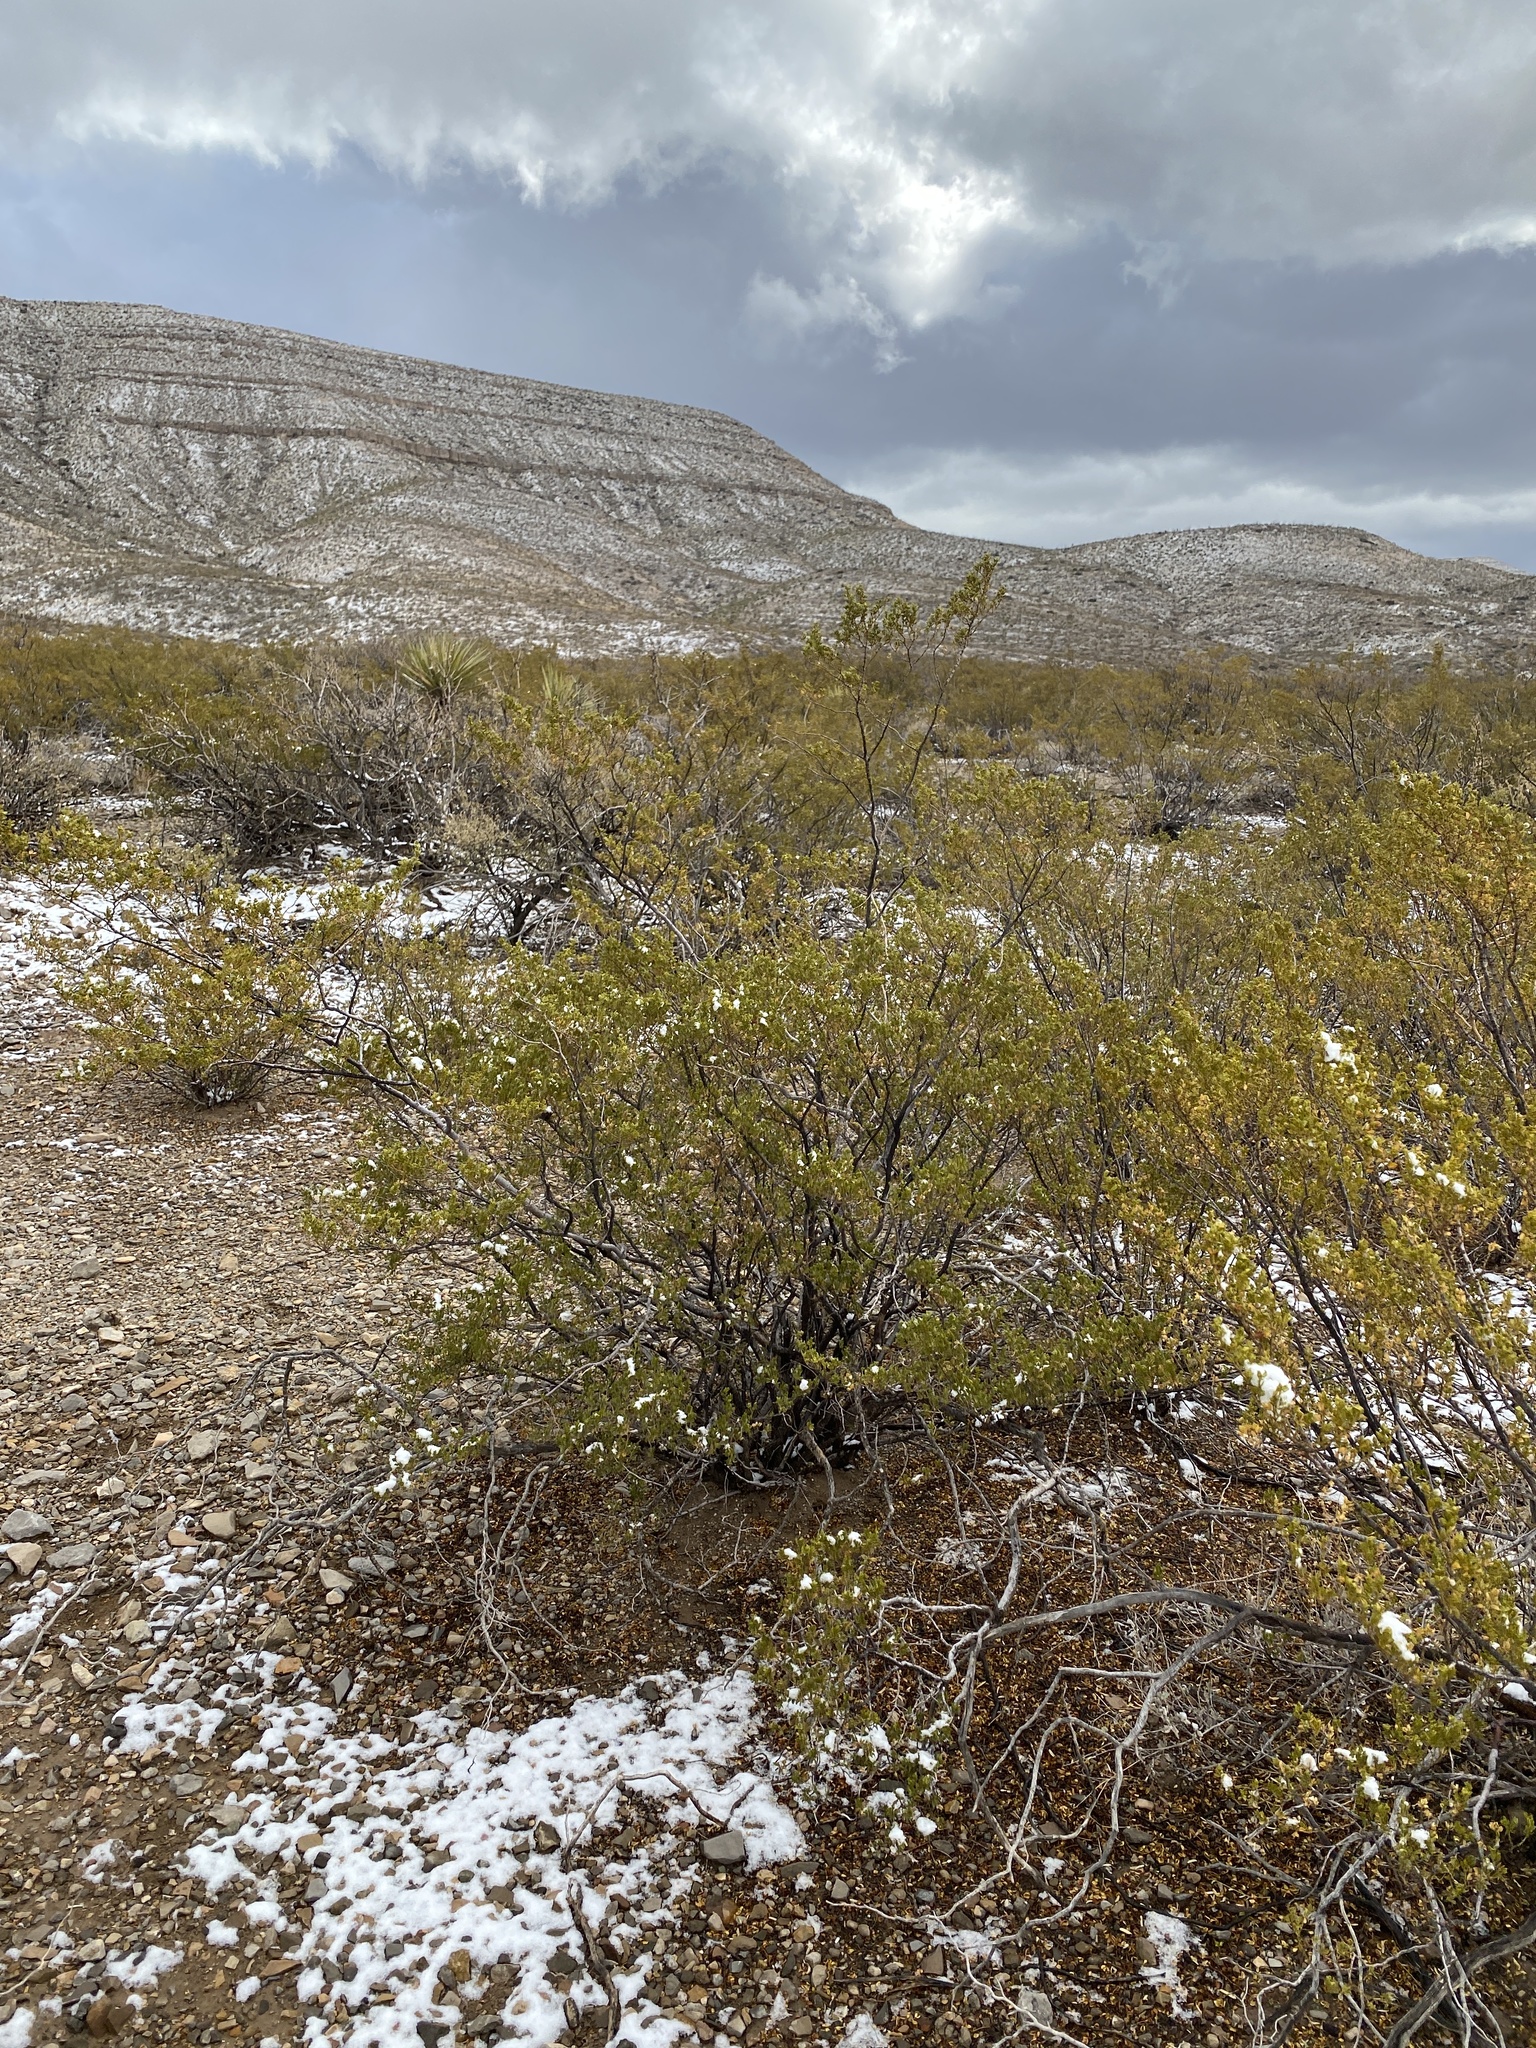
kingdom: Plantae
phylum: Tracheophyta
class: Magnoliopsida
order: Zygophyllales
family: Zygophyllaceae
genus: Larrea
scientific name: Larrea tridentata
